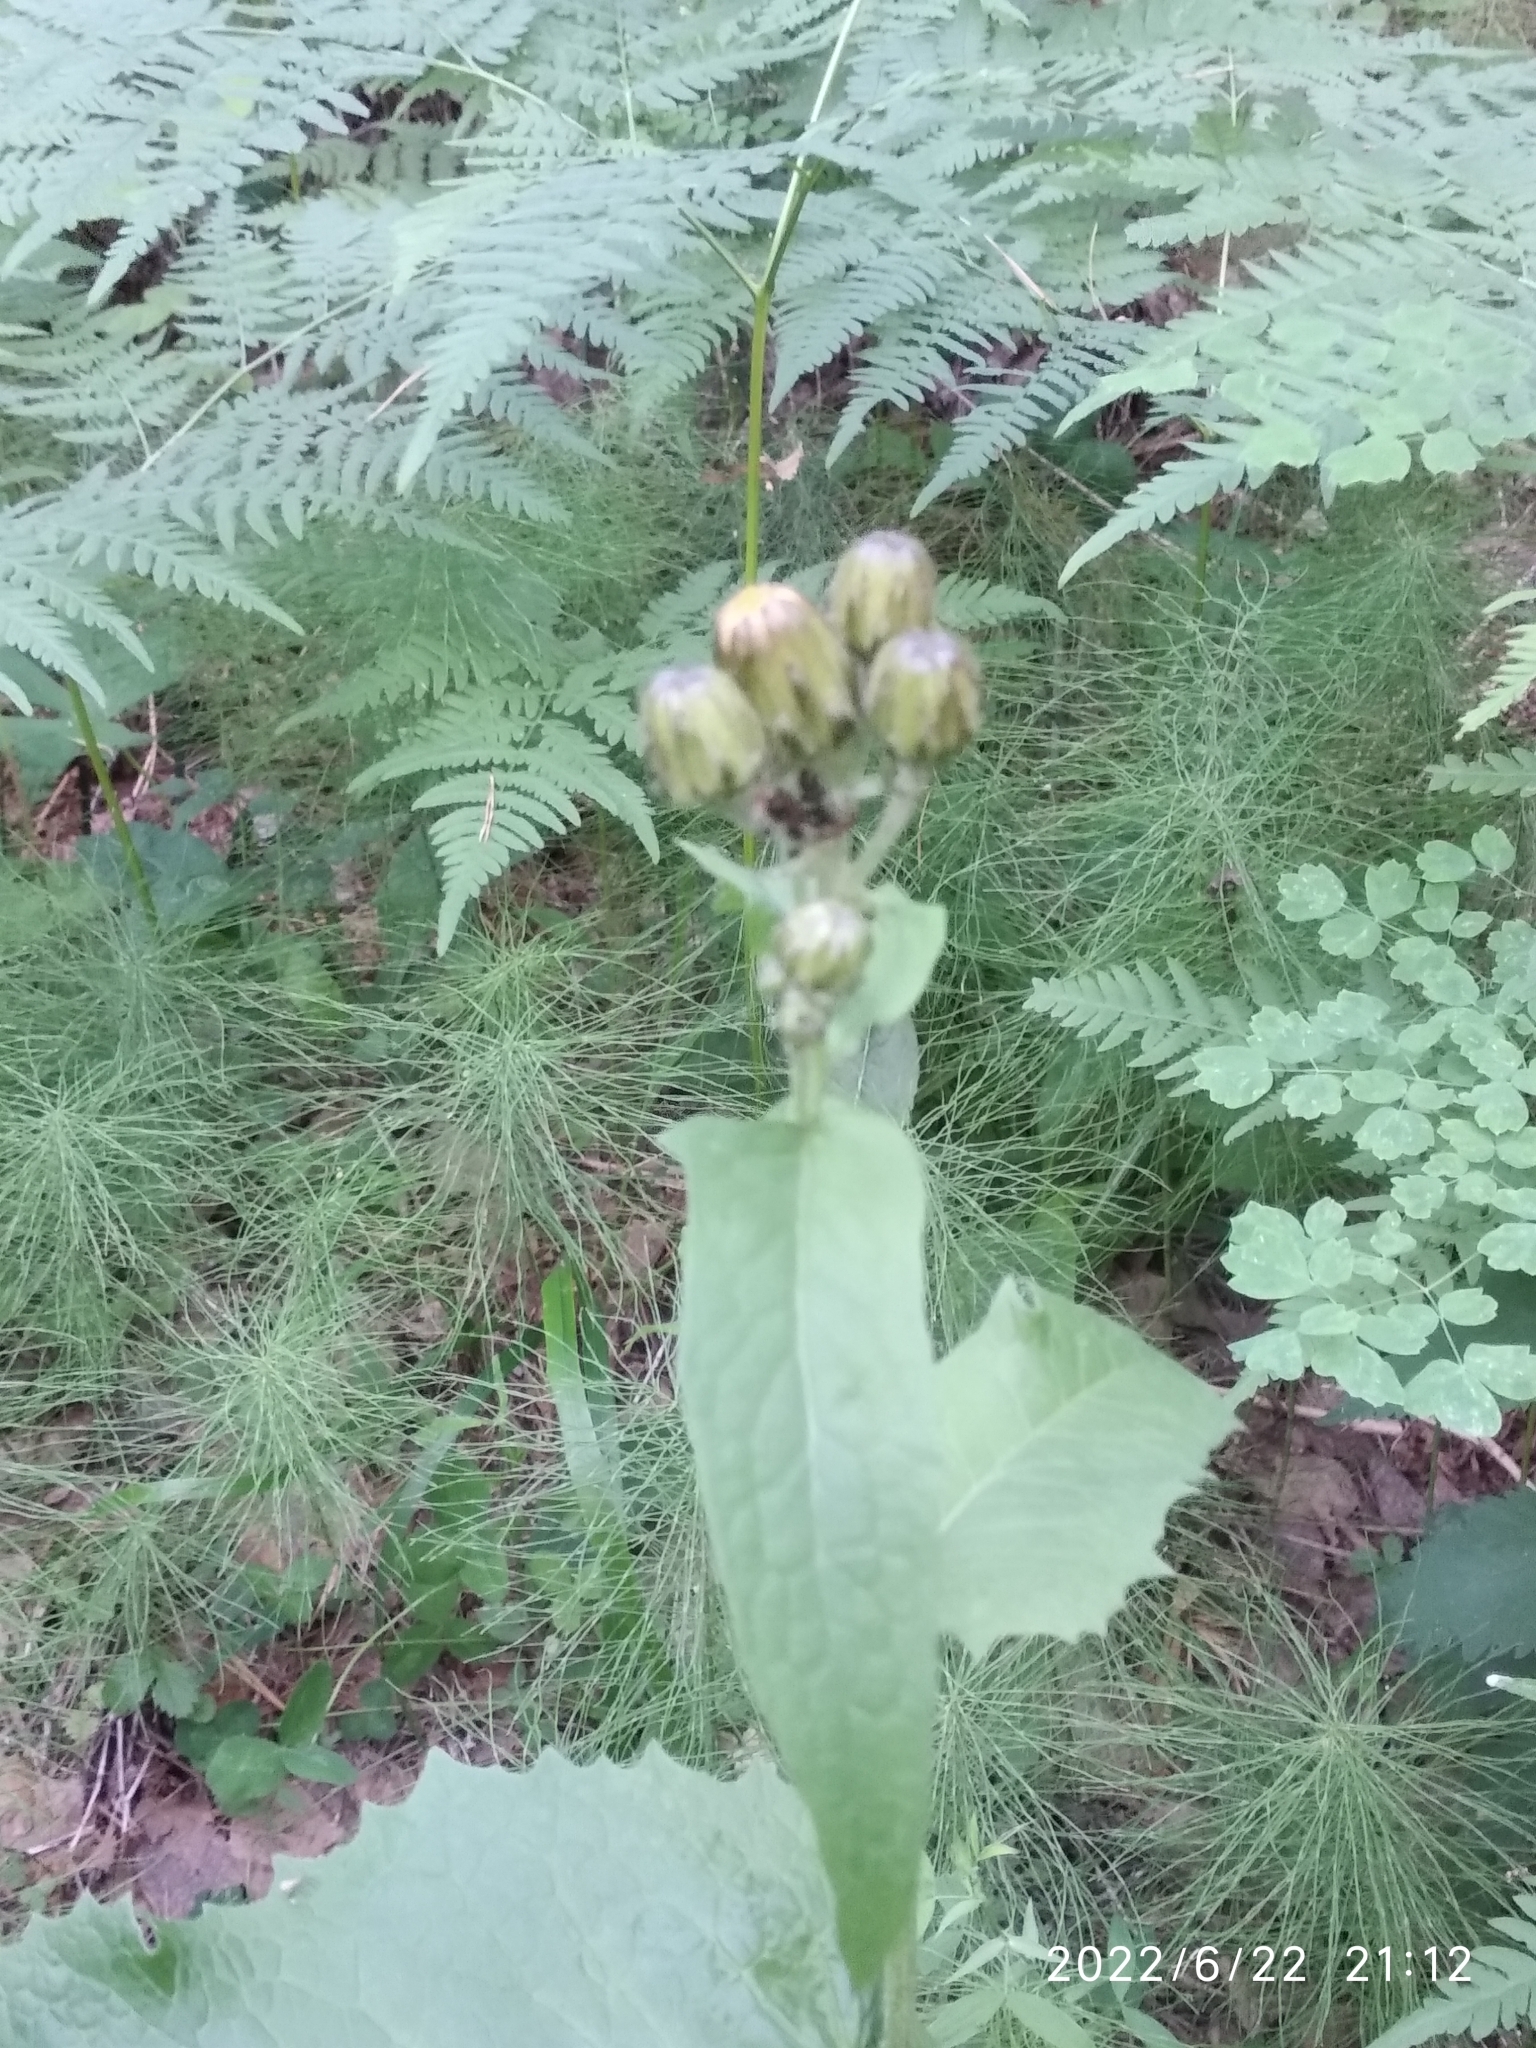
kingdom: Plantae
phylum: Tracheophyta
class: Magnoliopsida
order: Asterales
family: Asteraceae
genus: Crepis
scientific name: Crepis sibirica
